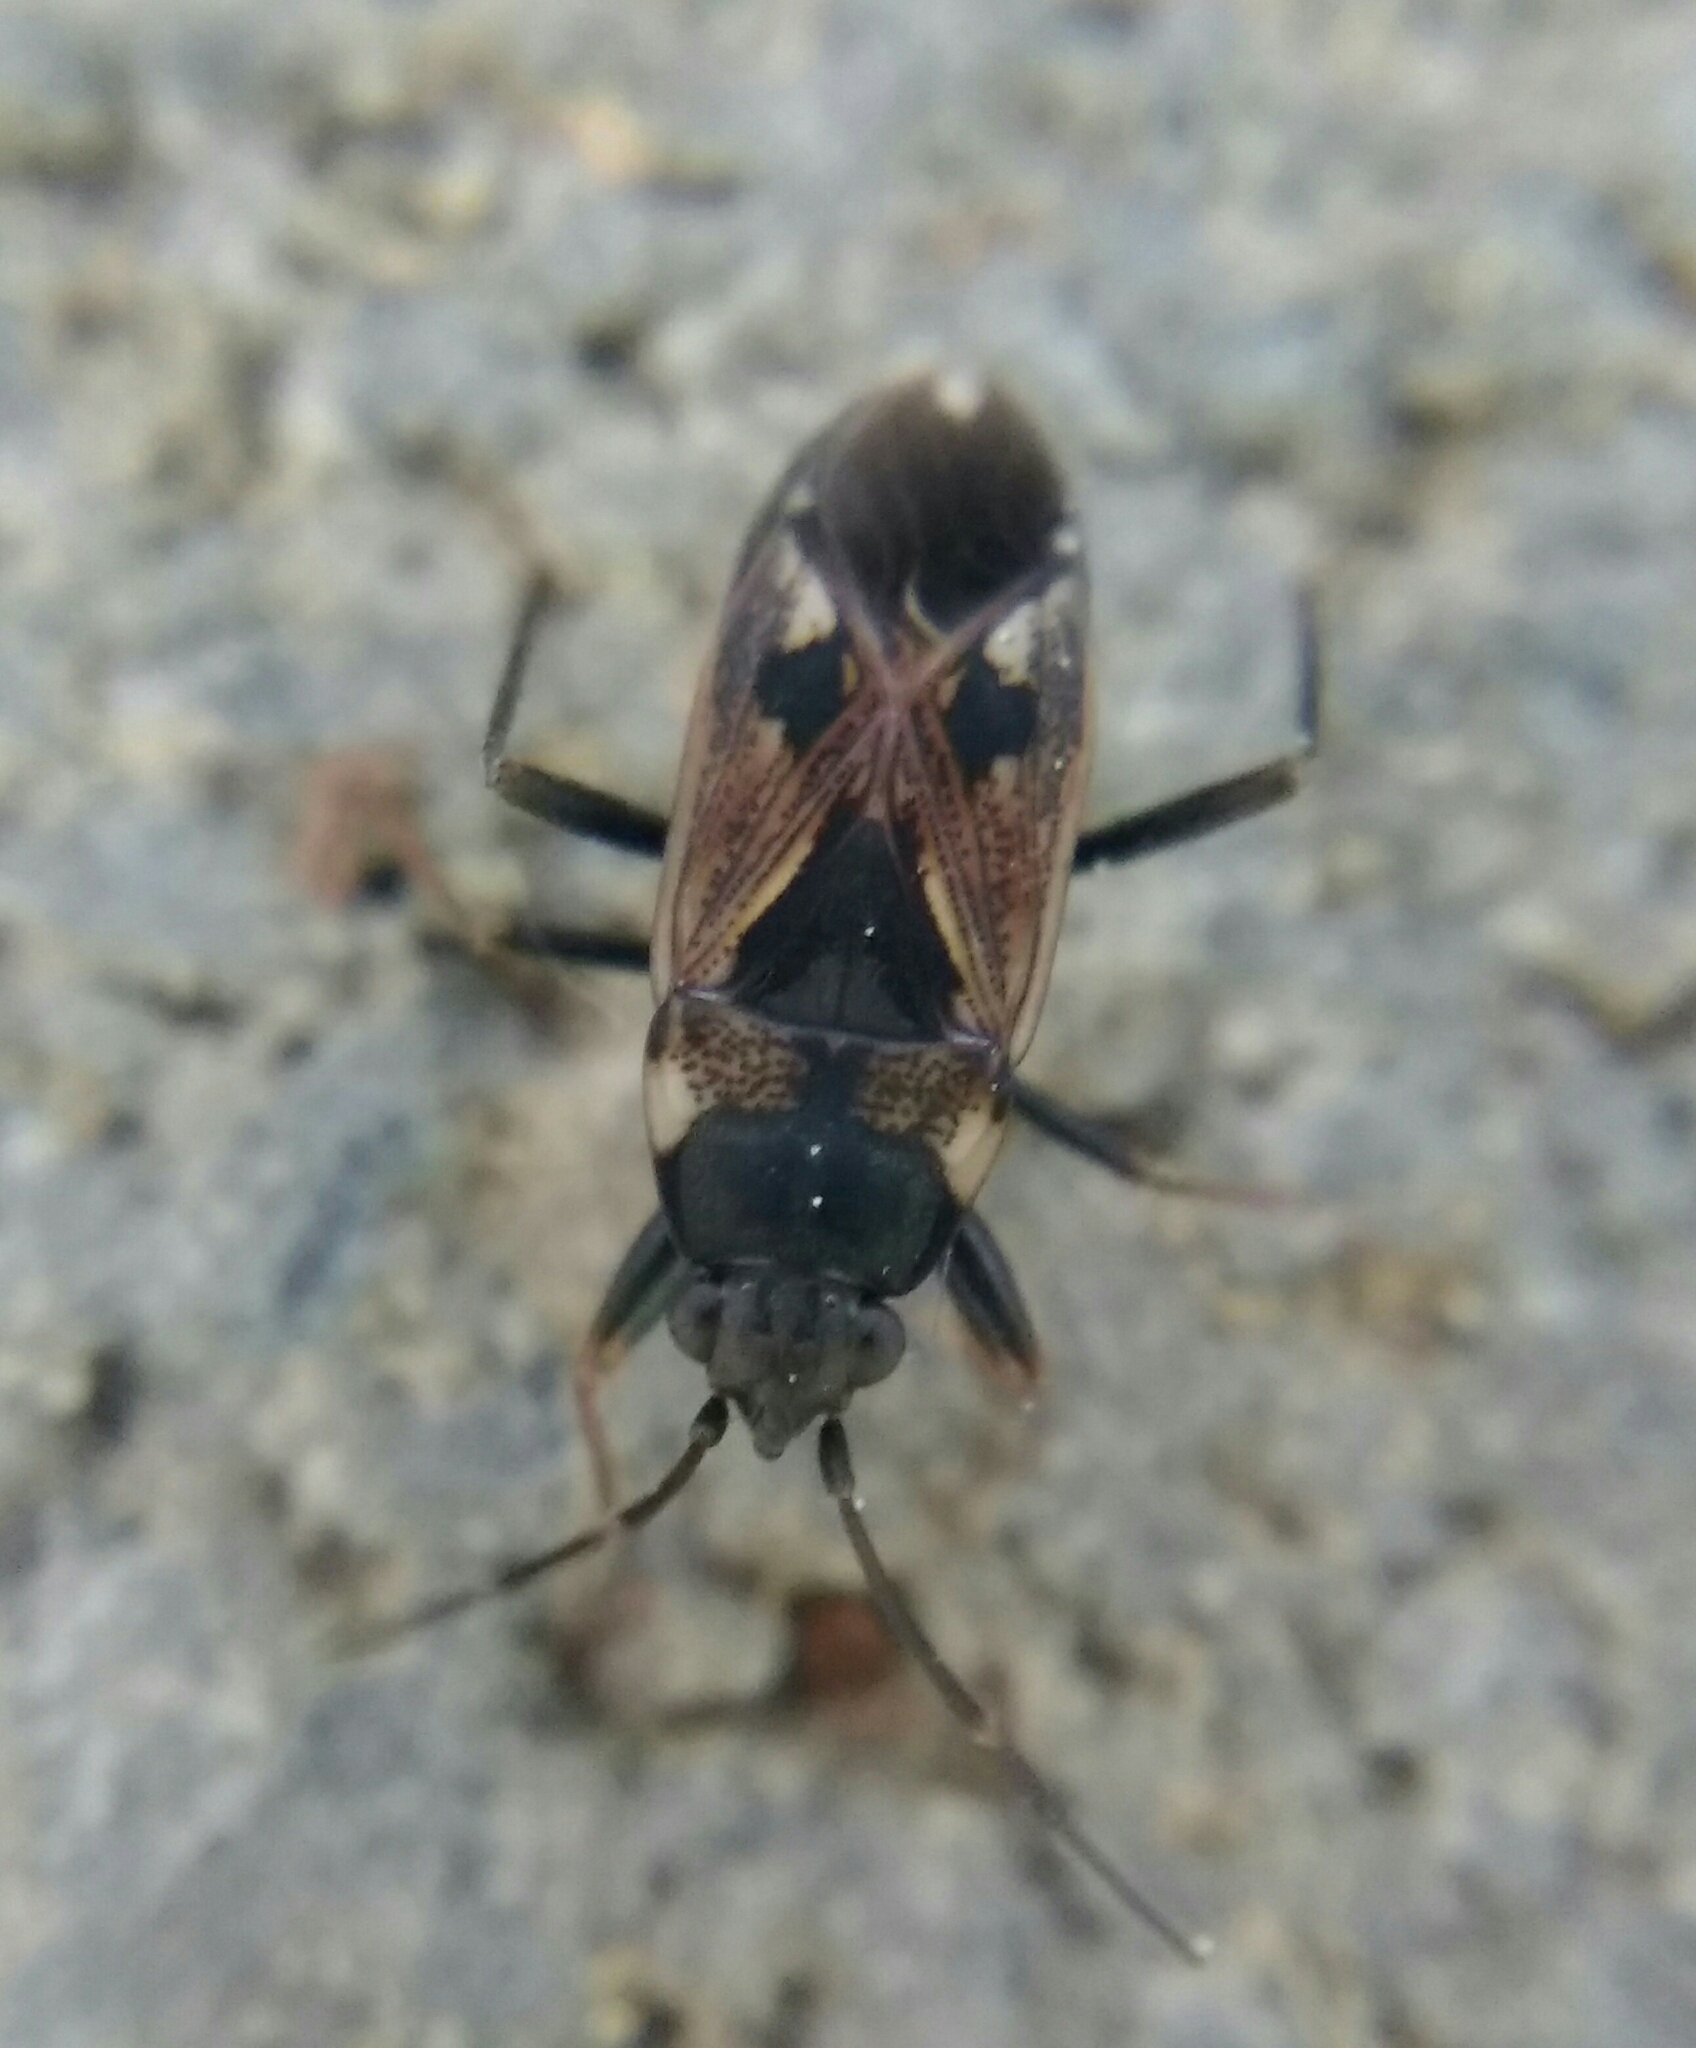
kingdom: Animalia
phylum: Arthropoda
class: Insecta
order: Hemiptera
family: Rhyparochromidae
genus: Rhyparochromus
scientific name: Rhyparochromus vulgaris
